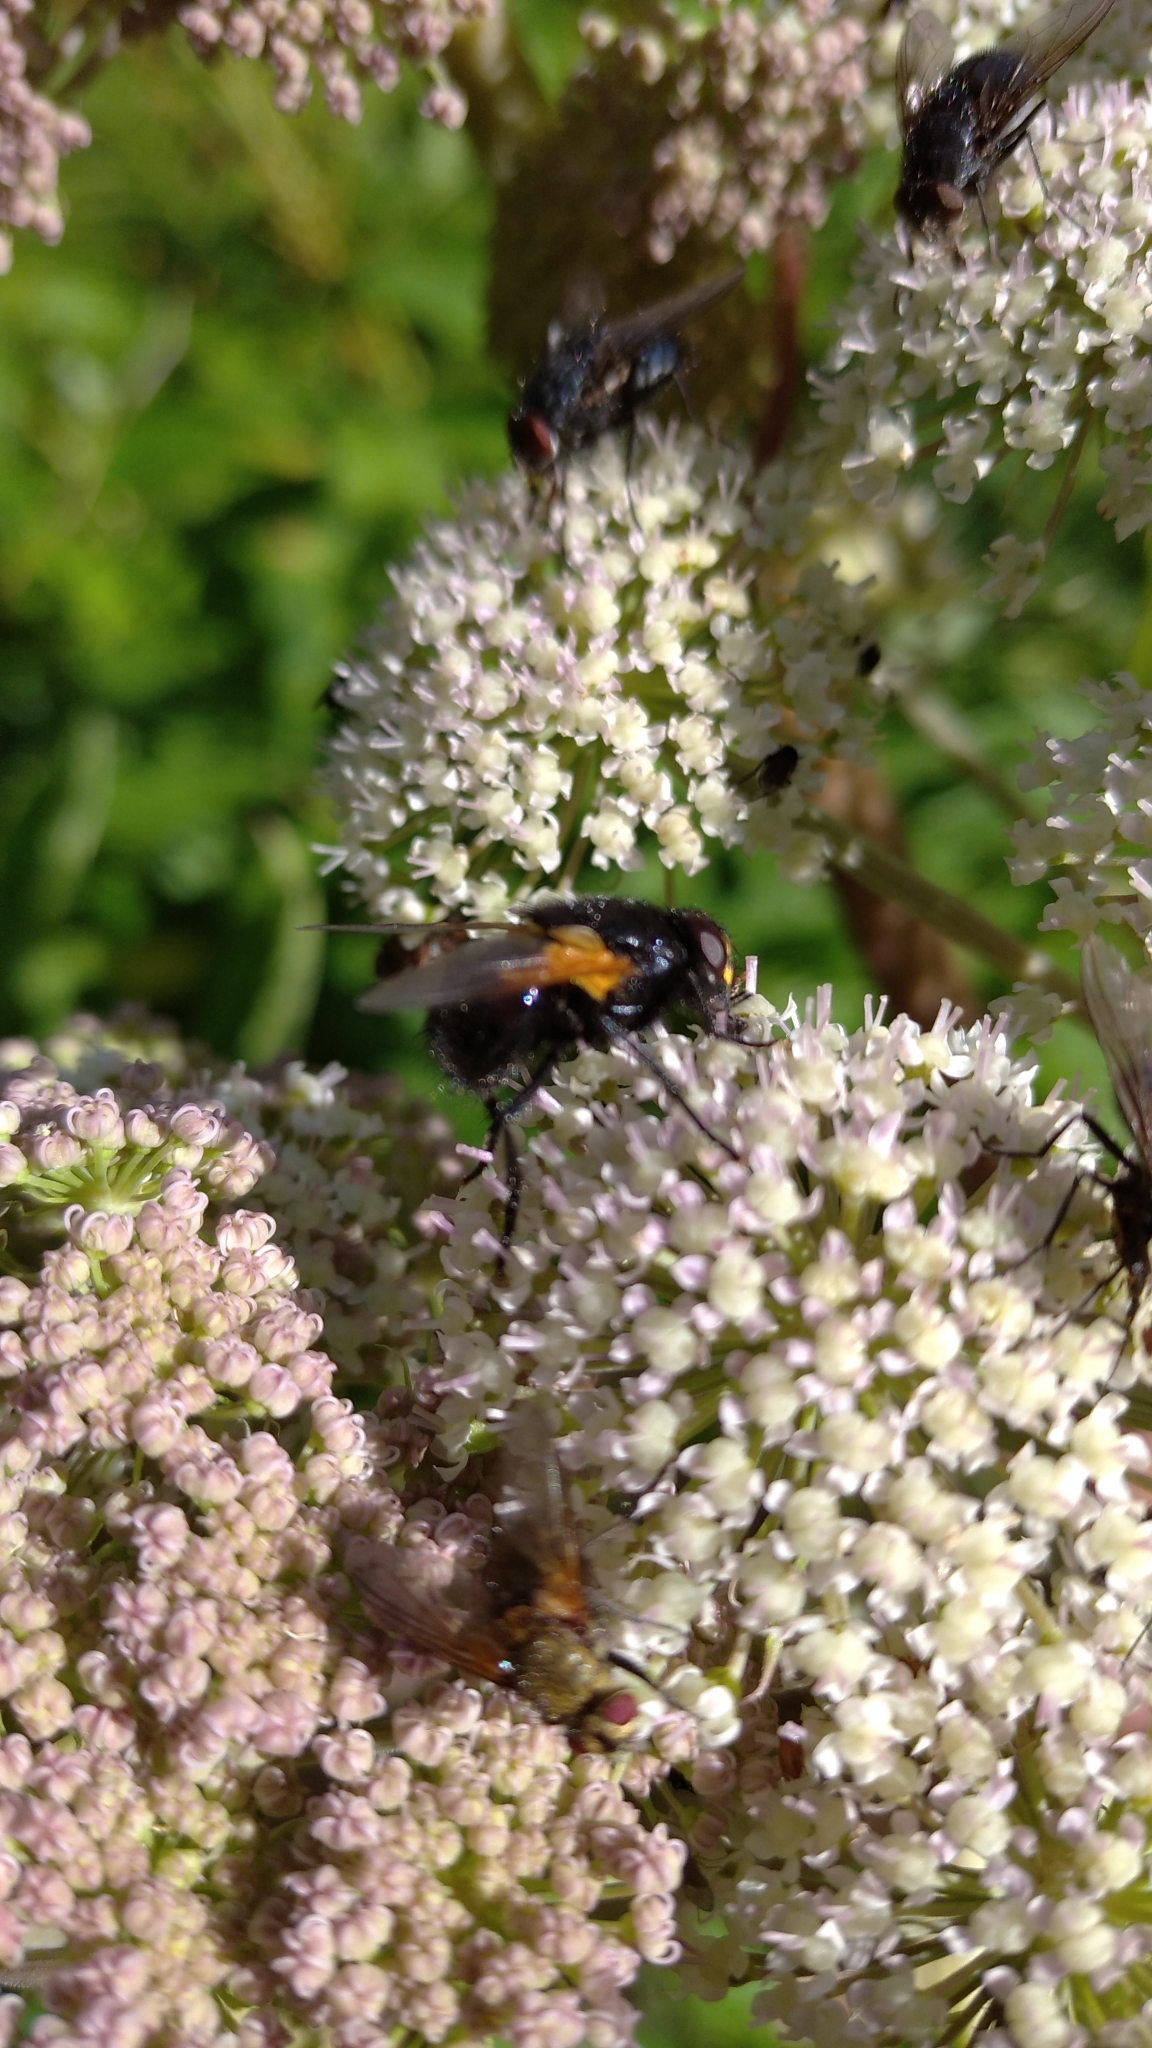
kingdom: Animalia
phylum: Arthropoda
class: Insecta
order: Diptera
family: Muscidae
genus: Mesembrina
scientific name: Mesembrina meridiana
